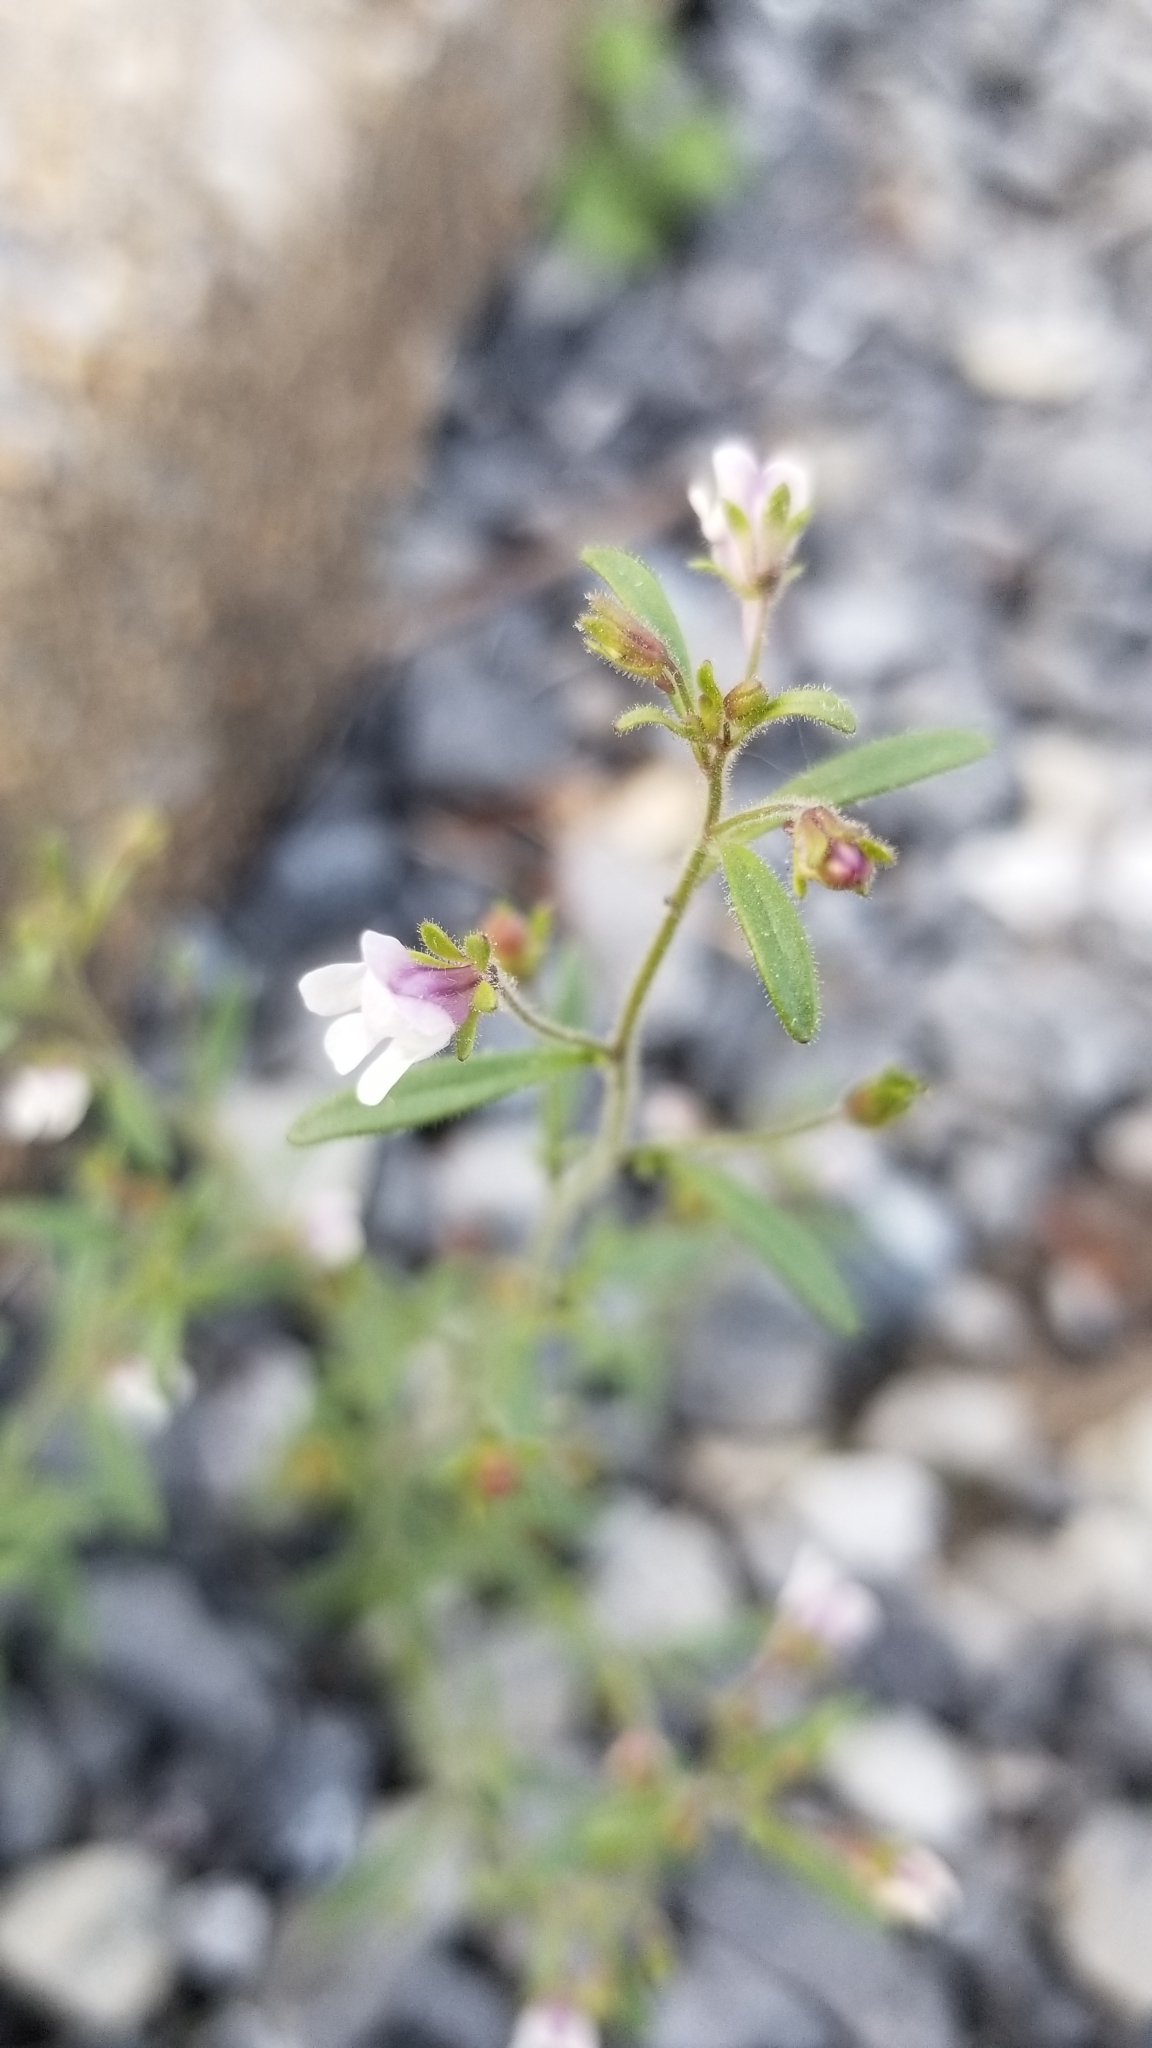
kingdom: Plantae
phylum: Tracheophyta
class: Magnoliopsida
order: Lamiales
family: Plantaginaceae
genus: Chaenorhinum
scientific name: Chaenorhinum minus
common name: Dwarf snapdragon
